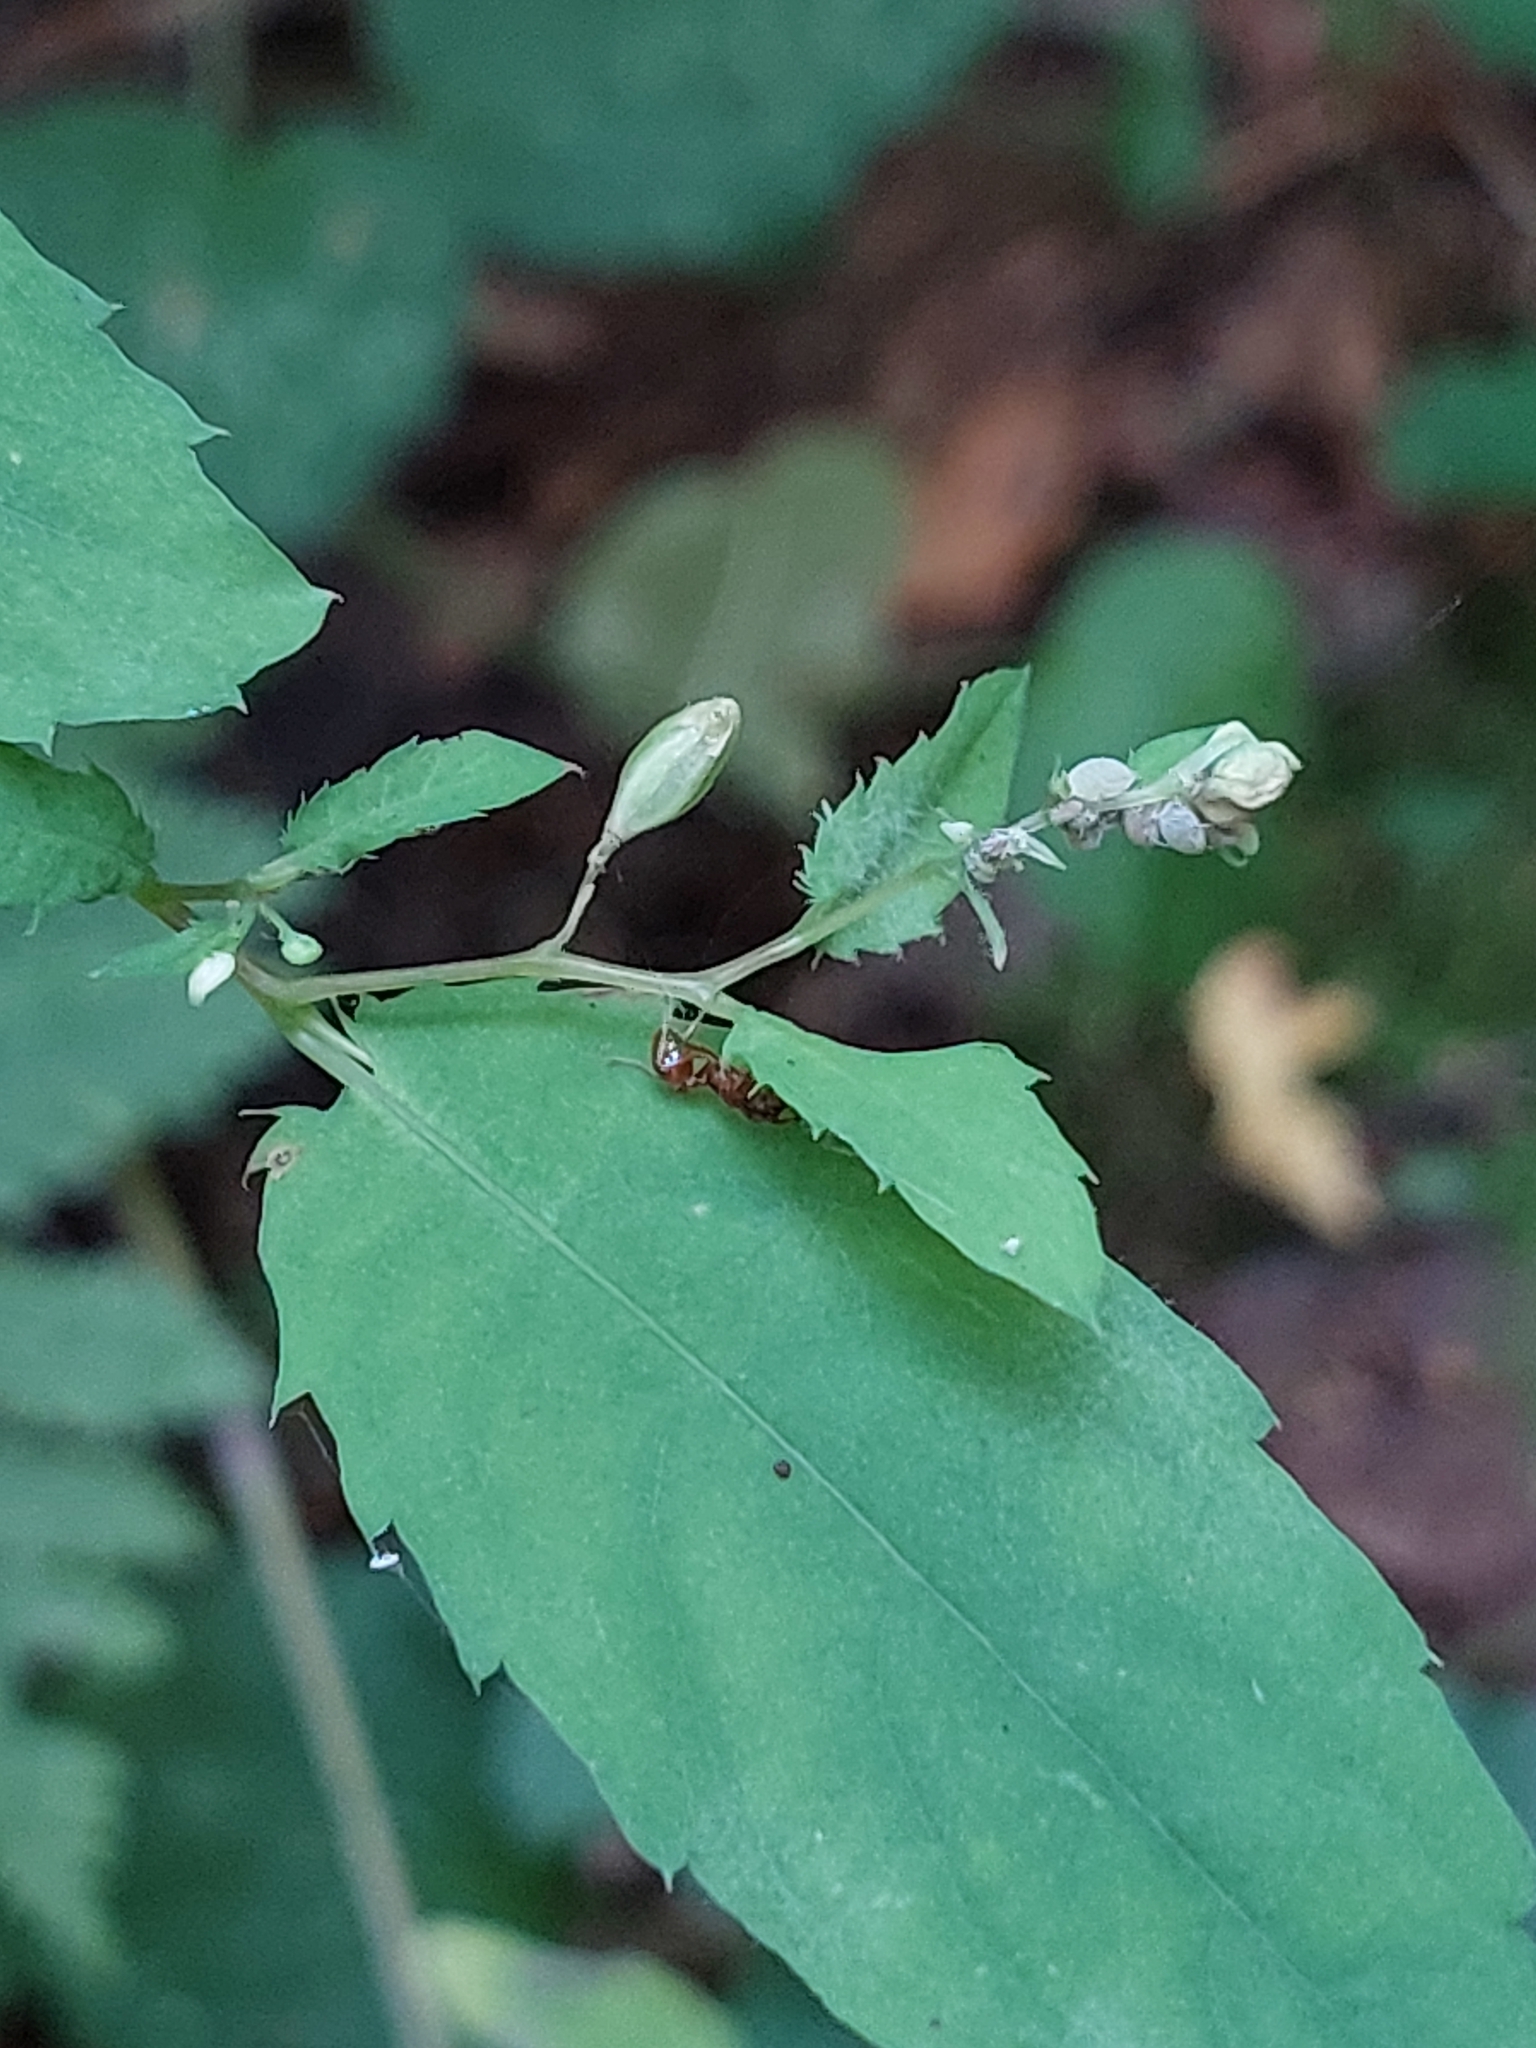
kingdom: Plantae
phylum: Tracheophyta
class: Magnoliopsida
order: Ericales
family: Balsaminaceae
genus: Impatiens
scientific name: Impatiens noli-tangere
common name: Touch-me-not balsam
